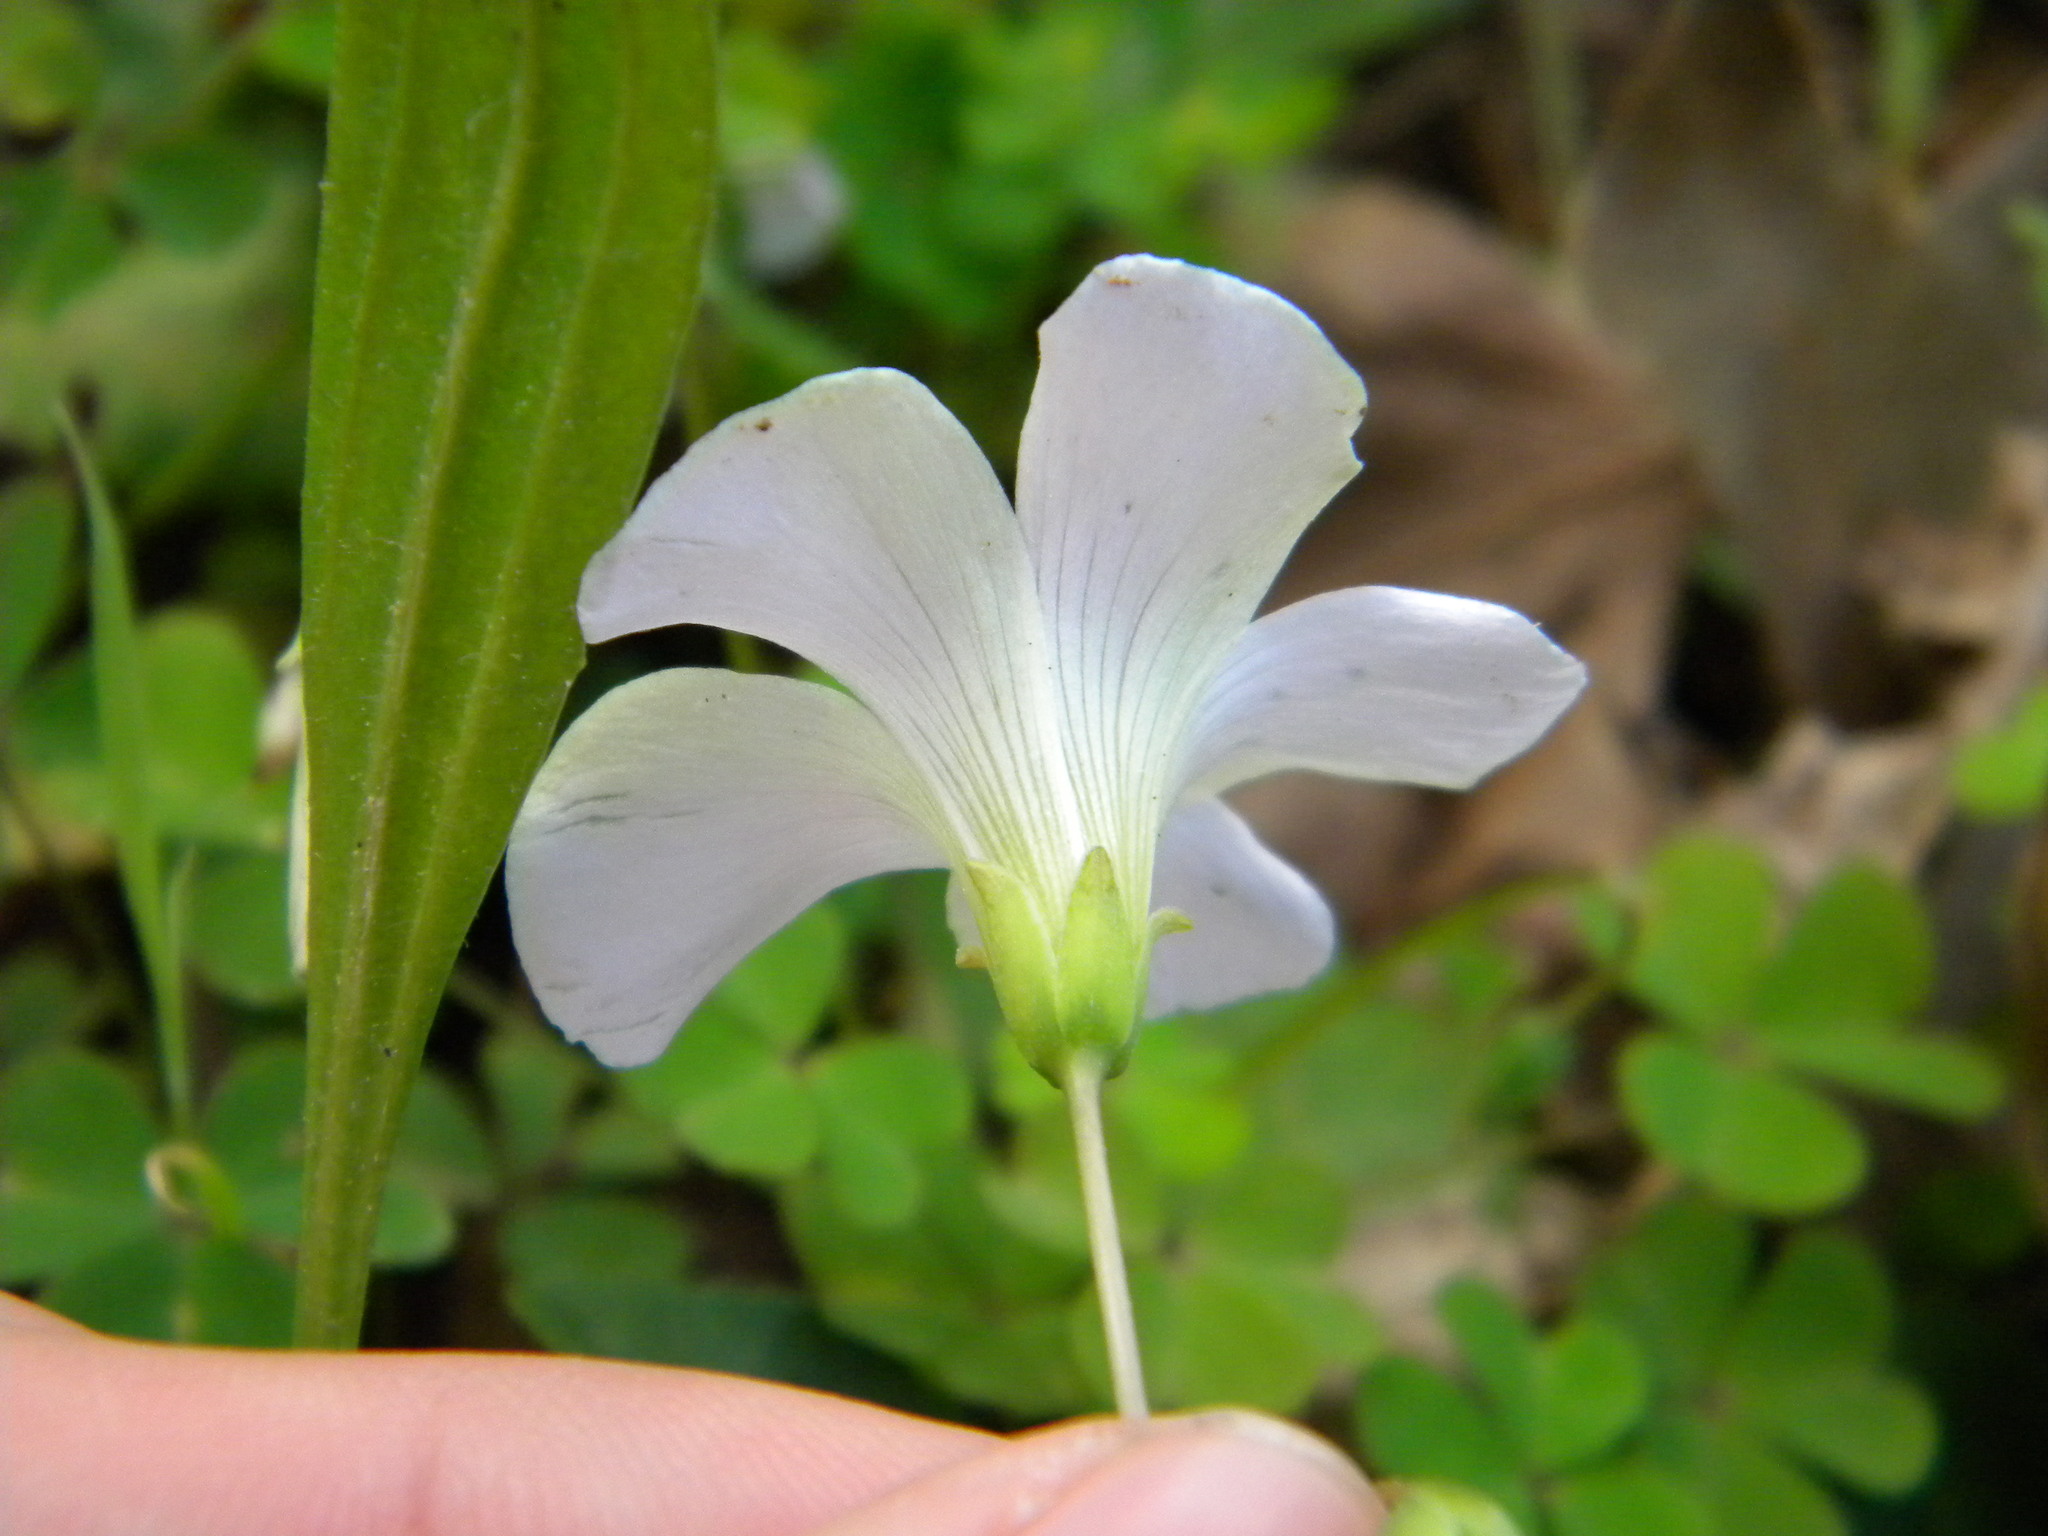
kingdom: Plantae
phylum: Tracheophyta
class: Magnoliopsida
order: Oxalidales
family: Oxalidaceae
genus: Oxalis
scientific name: Oxalis incarnata
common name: Pale pink-sorrel
